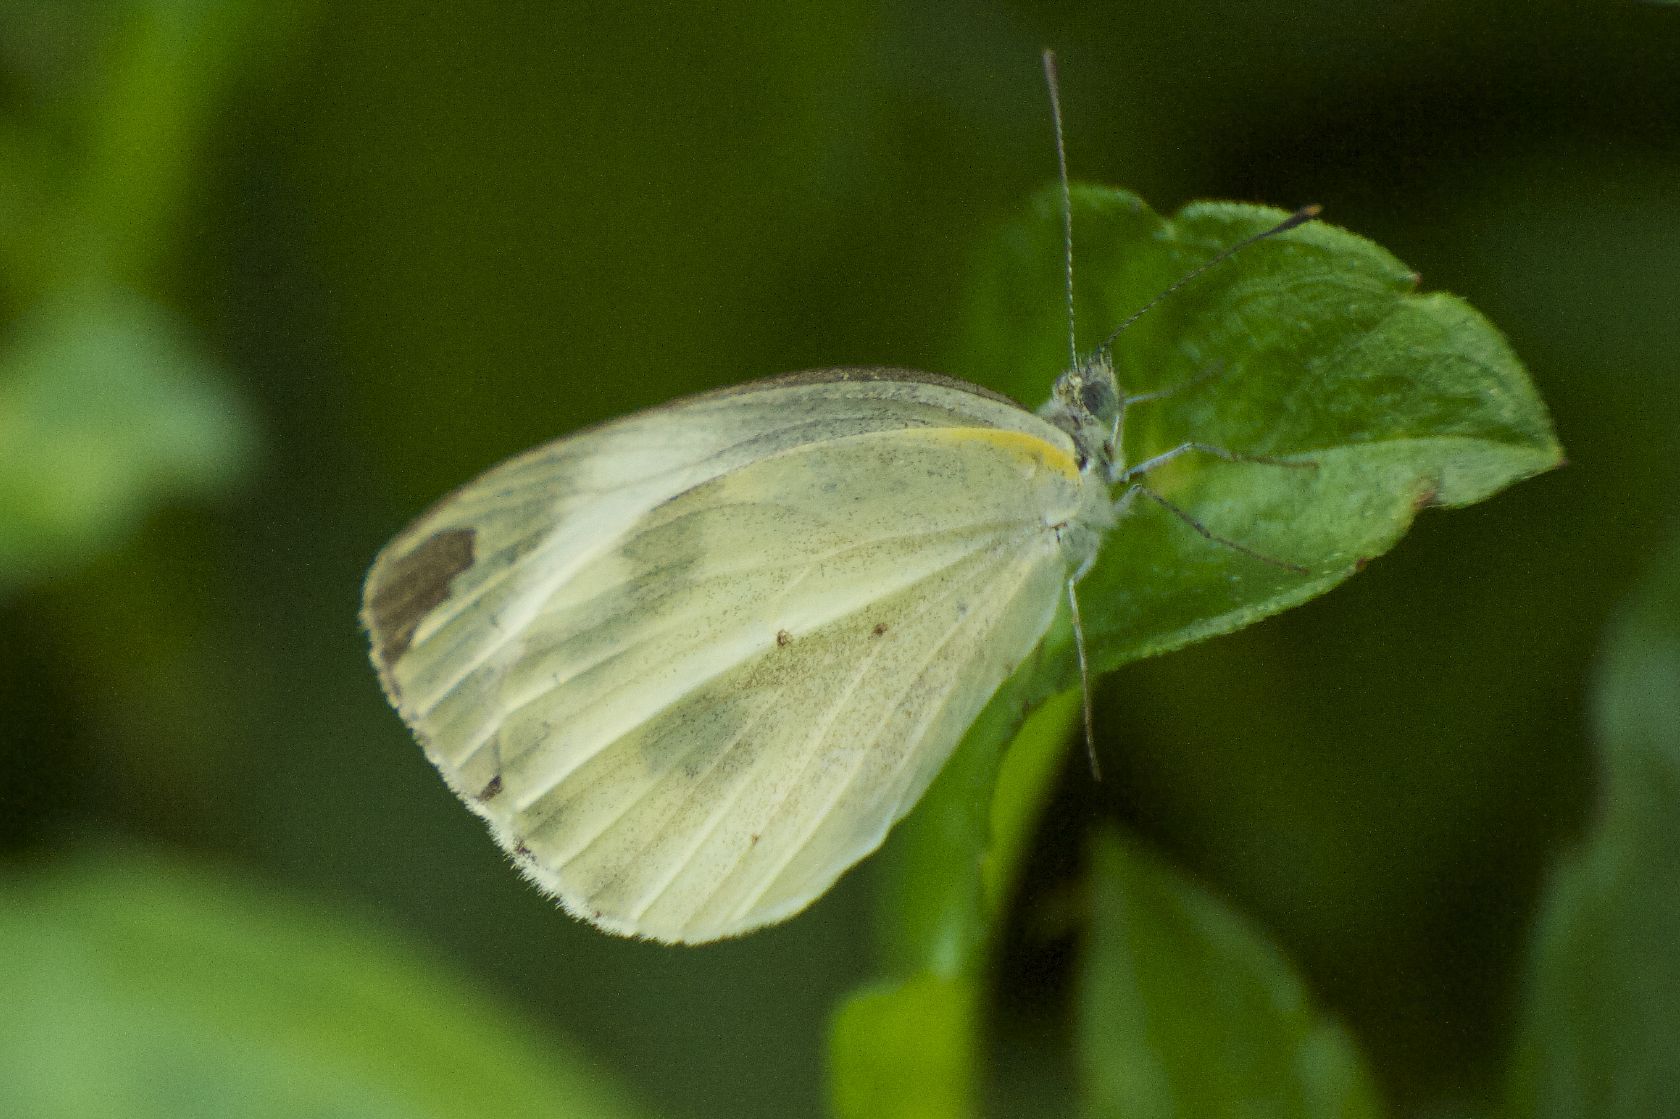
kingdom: Animalia
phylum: Arthropoda
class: Insecta
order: Lepidoptera
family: Pieridae
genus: Pieris
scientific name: Pieris canidia
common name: Indian cabbage white
